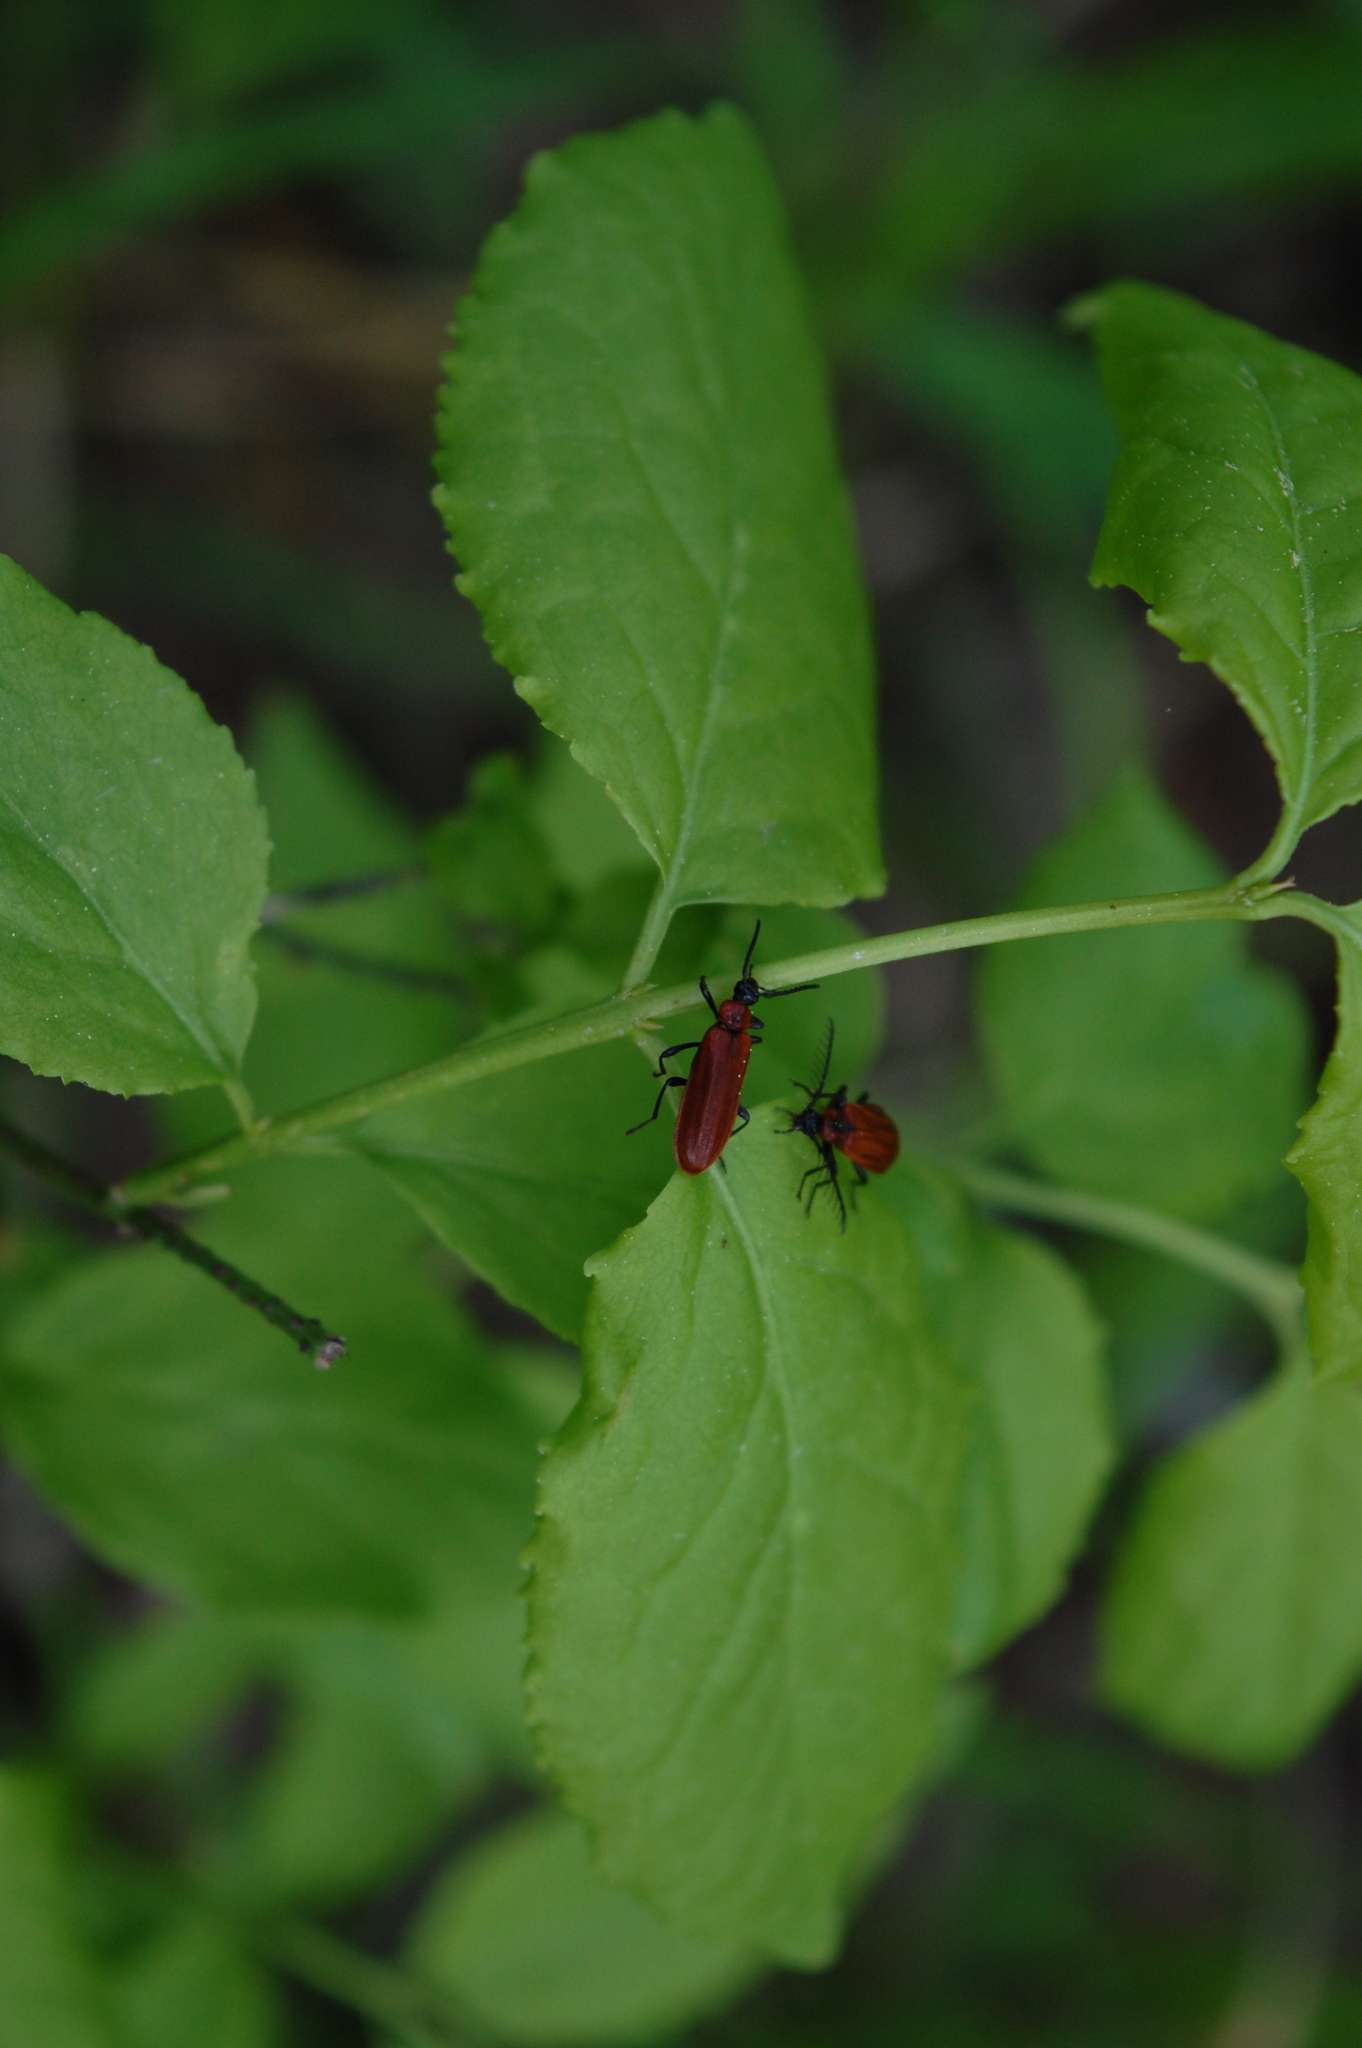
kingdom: Animalia
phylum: Arthropoda
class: Insecta
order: Coleoptera
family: Pyrochroidae
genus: Schizotus
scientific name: Schizotus pectinicornis
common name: Scarce cardinal beetle
